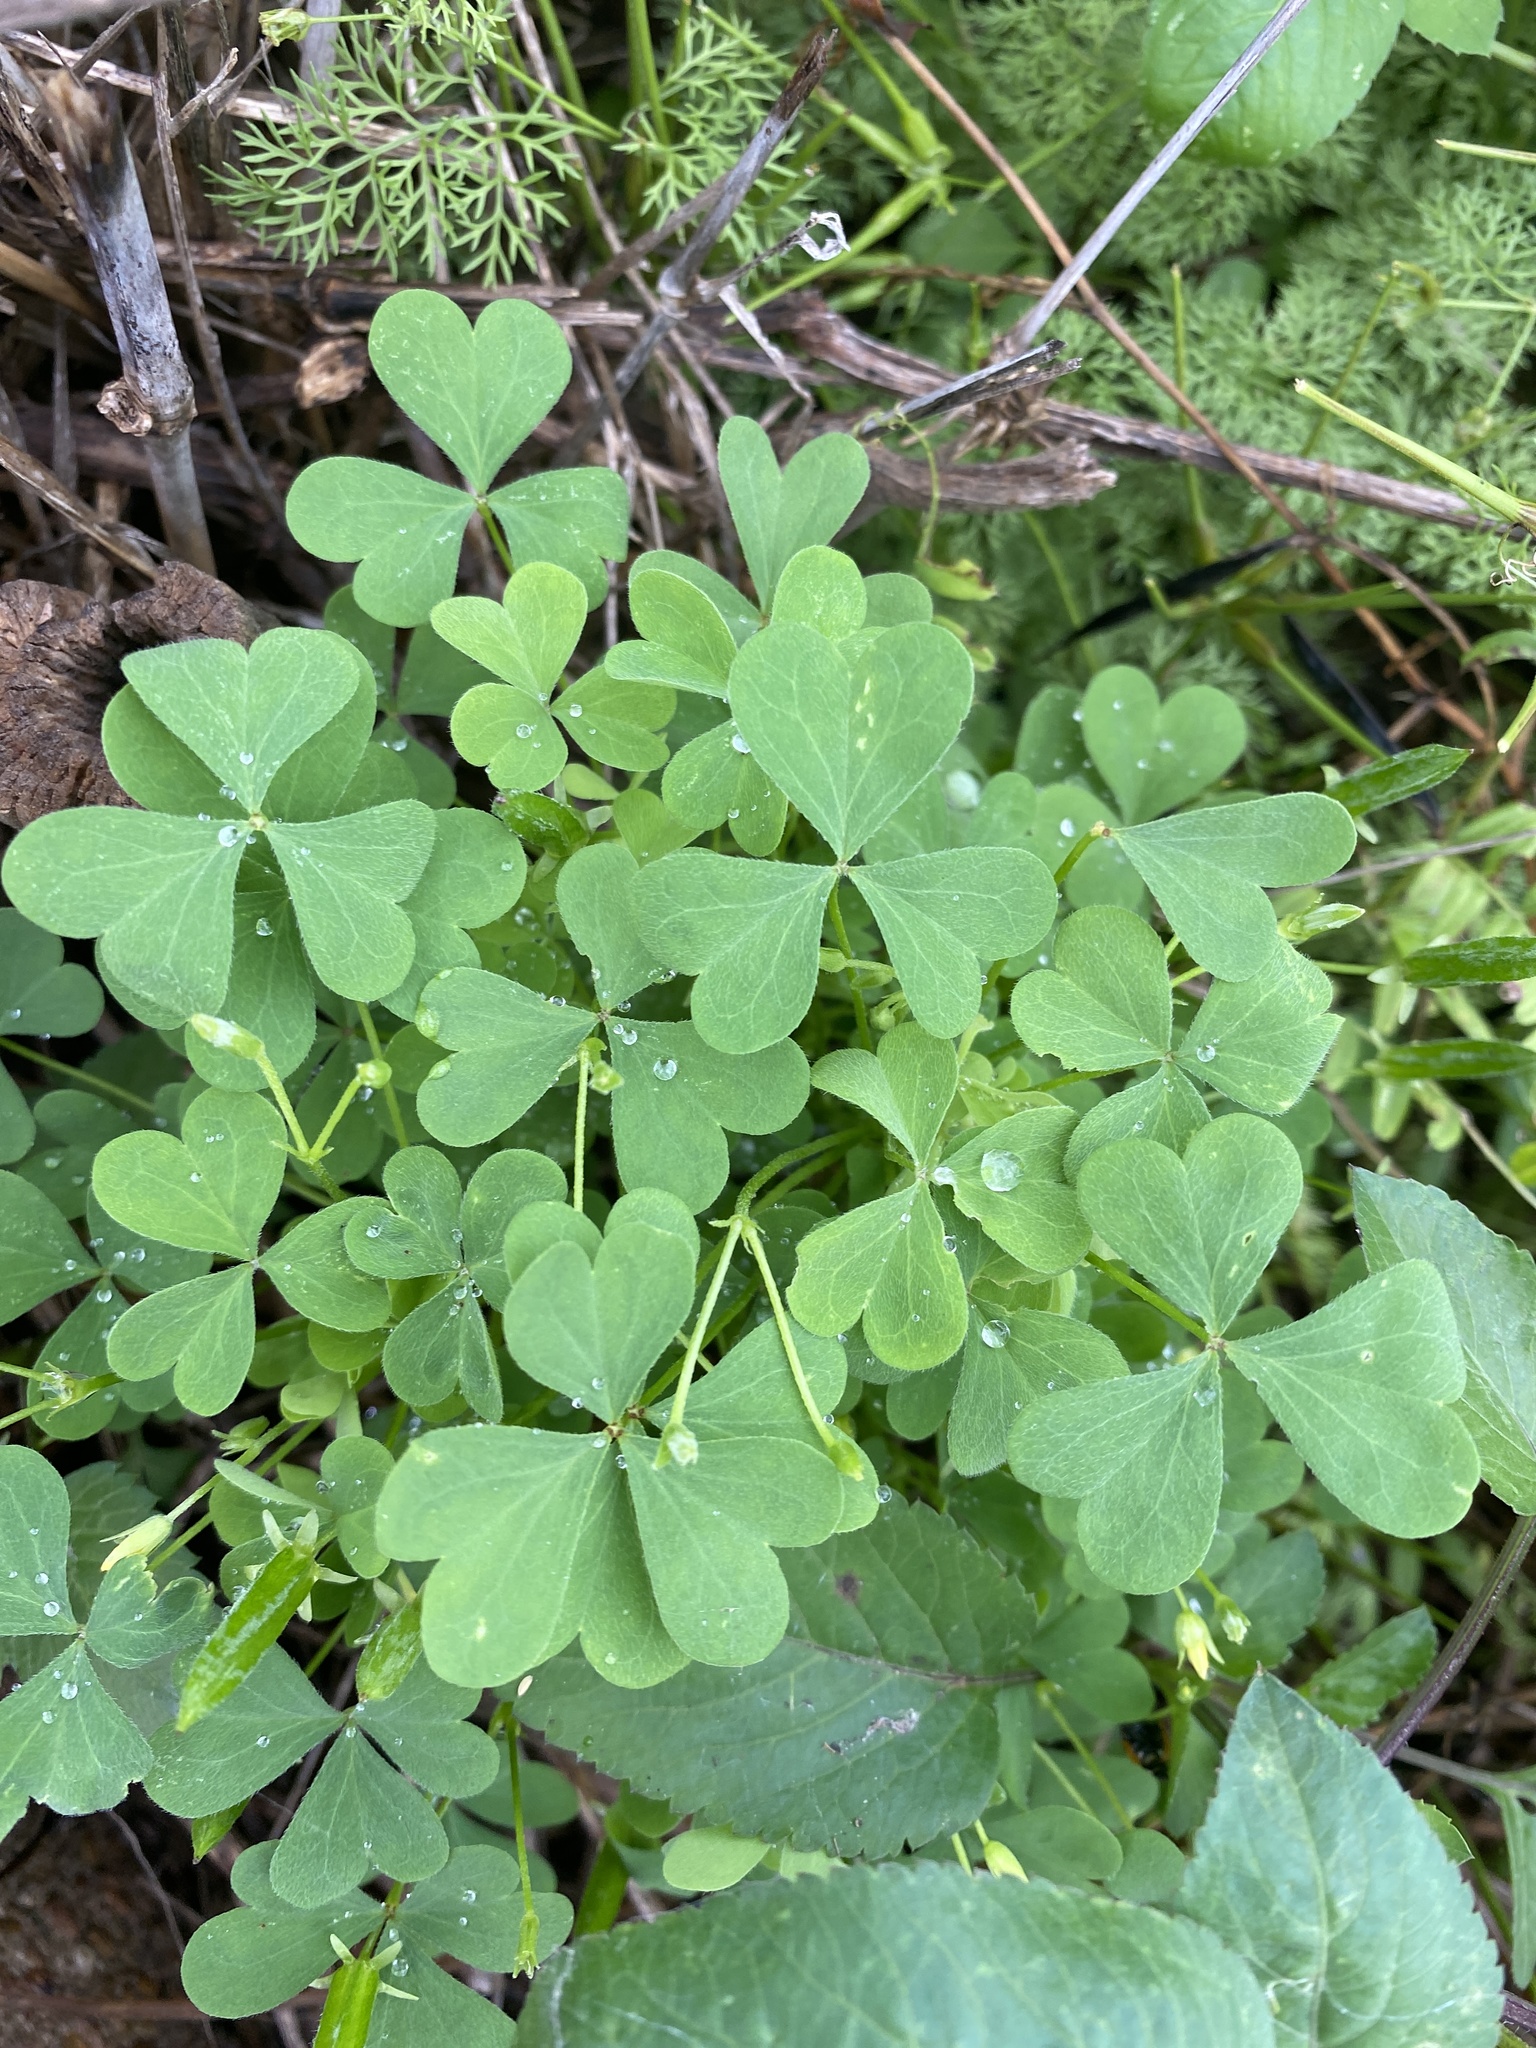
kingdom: Plantae
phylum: Tracheophyta
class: Magnoliopsida
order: Oxalidales
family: Oxalidaceae
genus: Oxalis
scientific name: Oxalis dillenii
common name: Sussex yellow-sorrel
